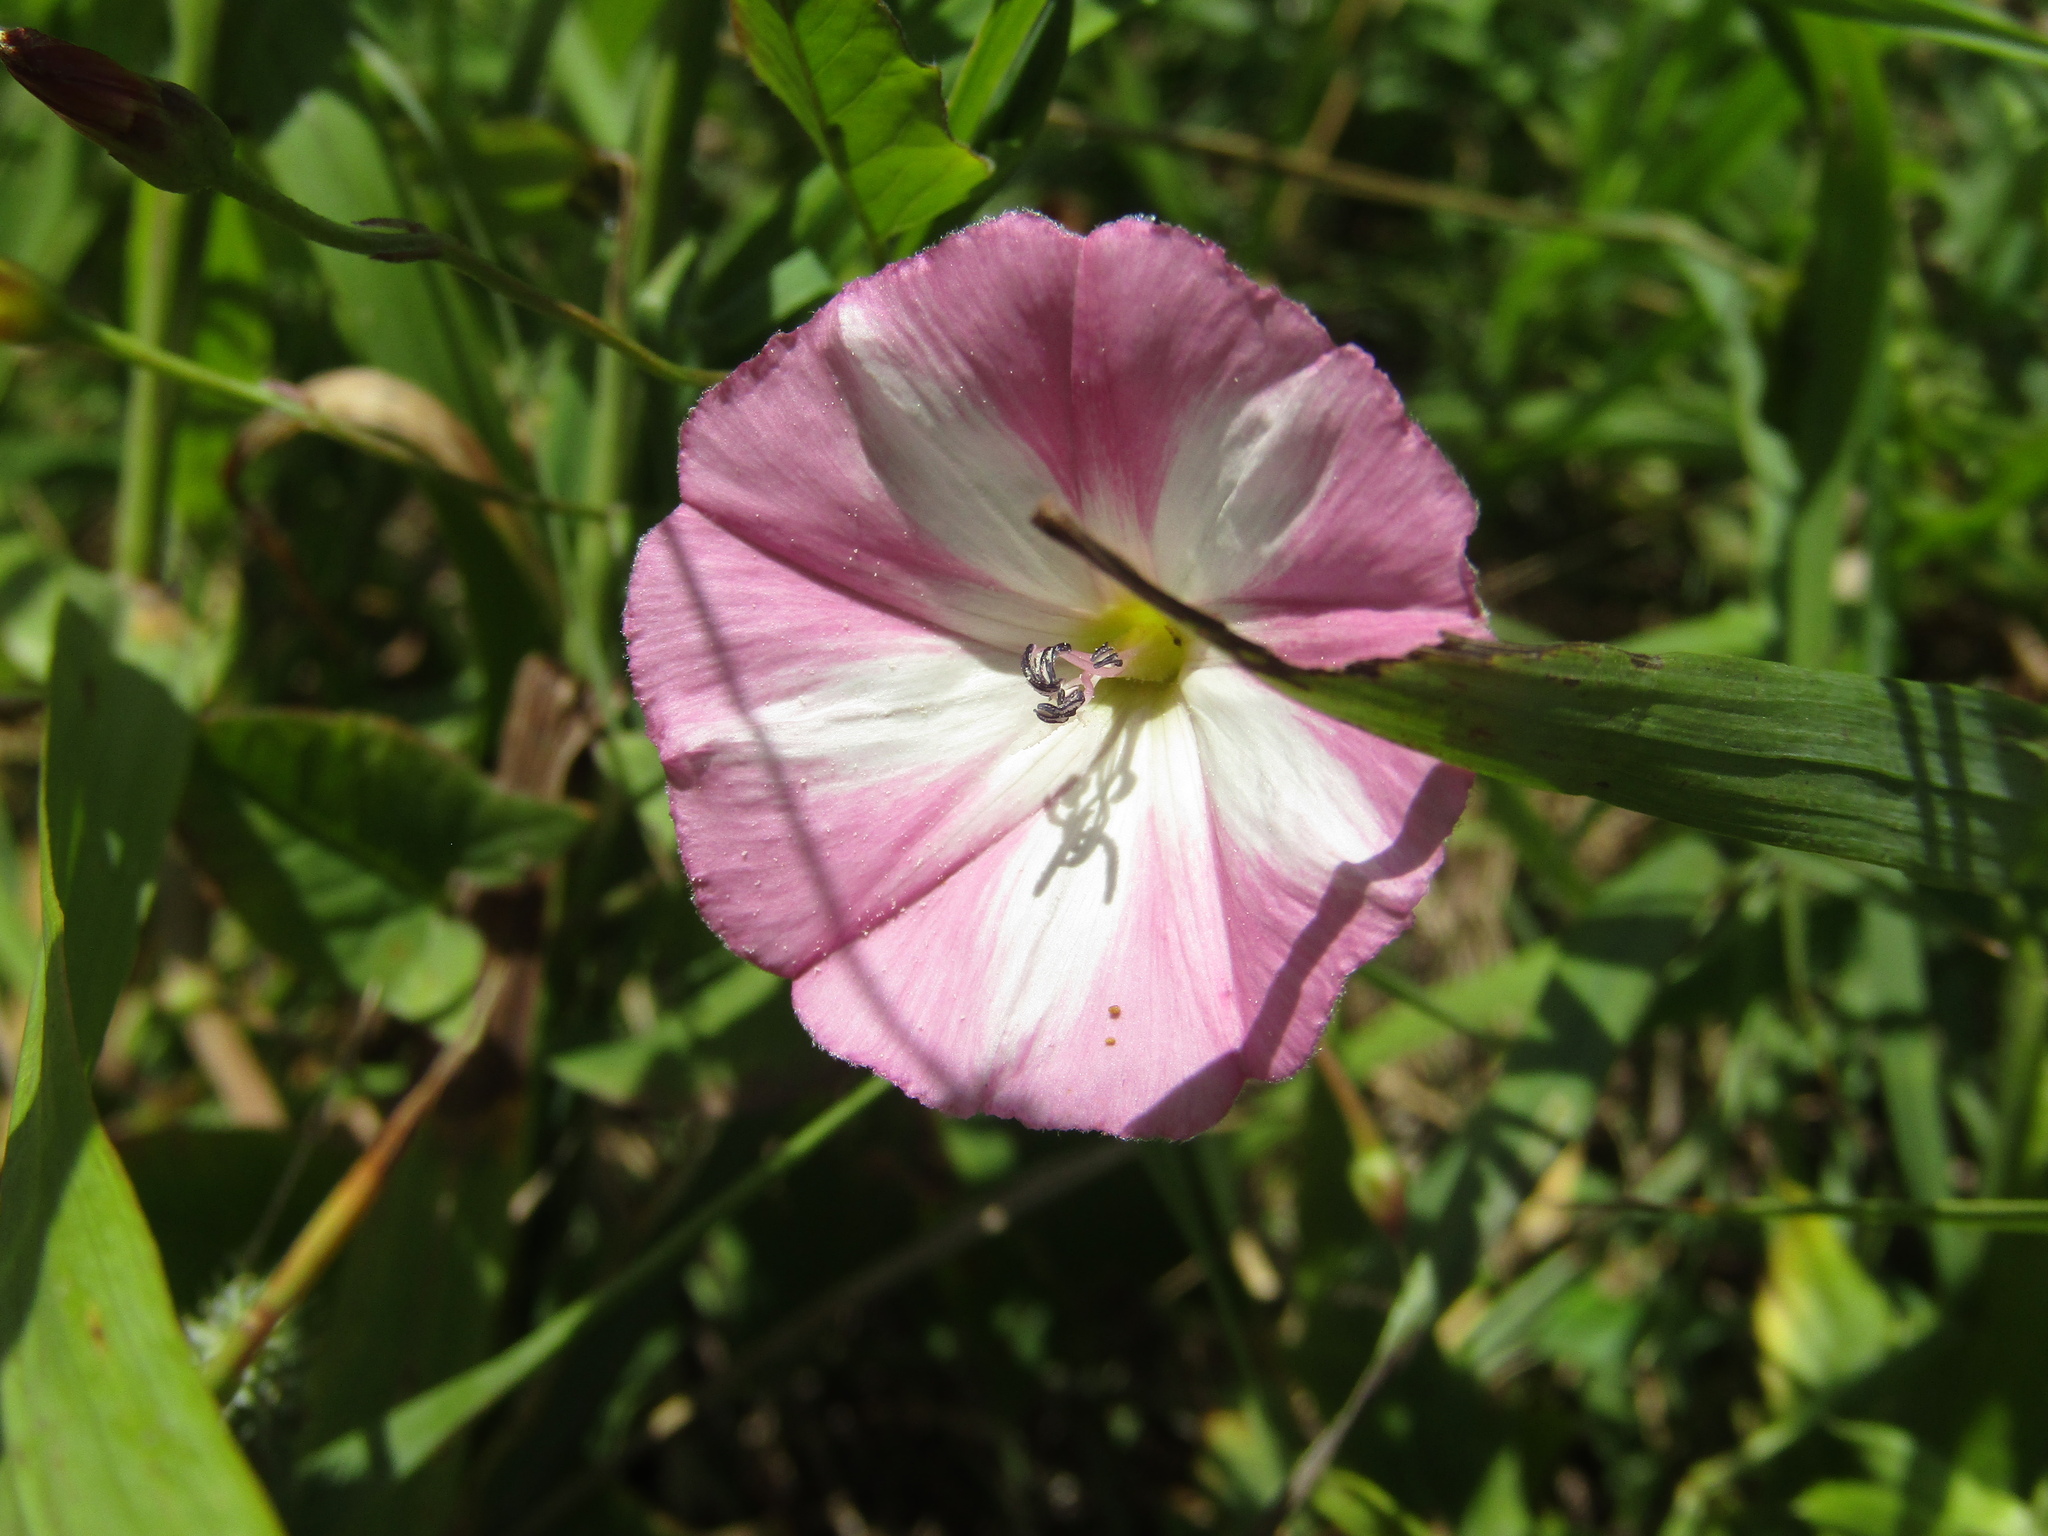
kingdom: Plantae
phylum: Tracheophyta
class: Magnoliopsida
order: Solanales
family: Convolvulaceae
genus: Convolvulus
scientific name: Convolvulus arvensis
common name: Field bindweed
